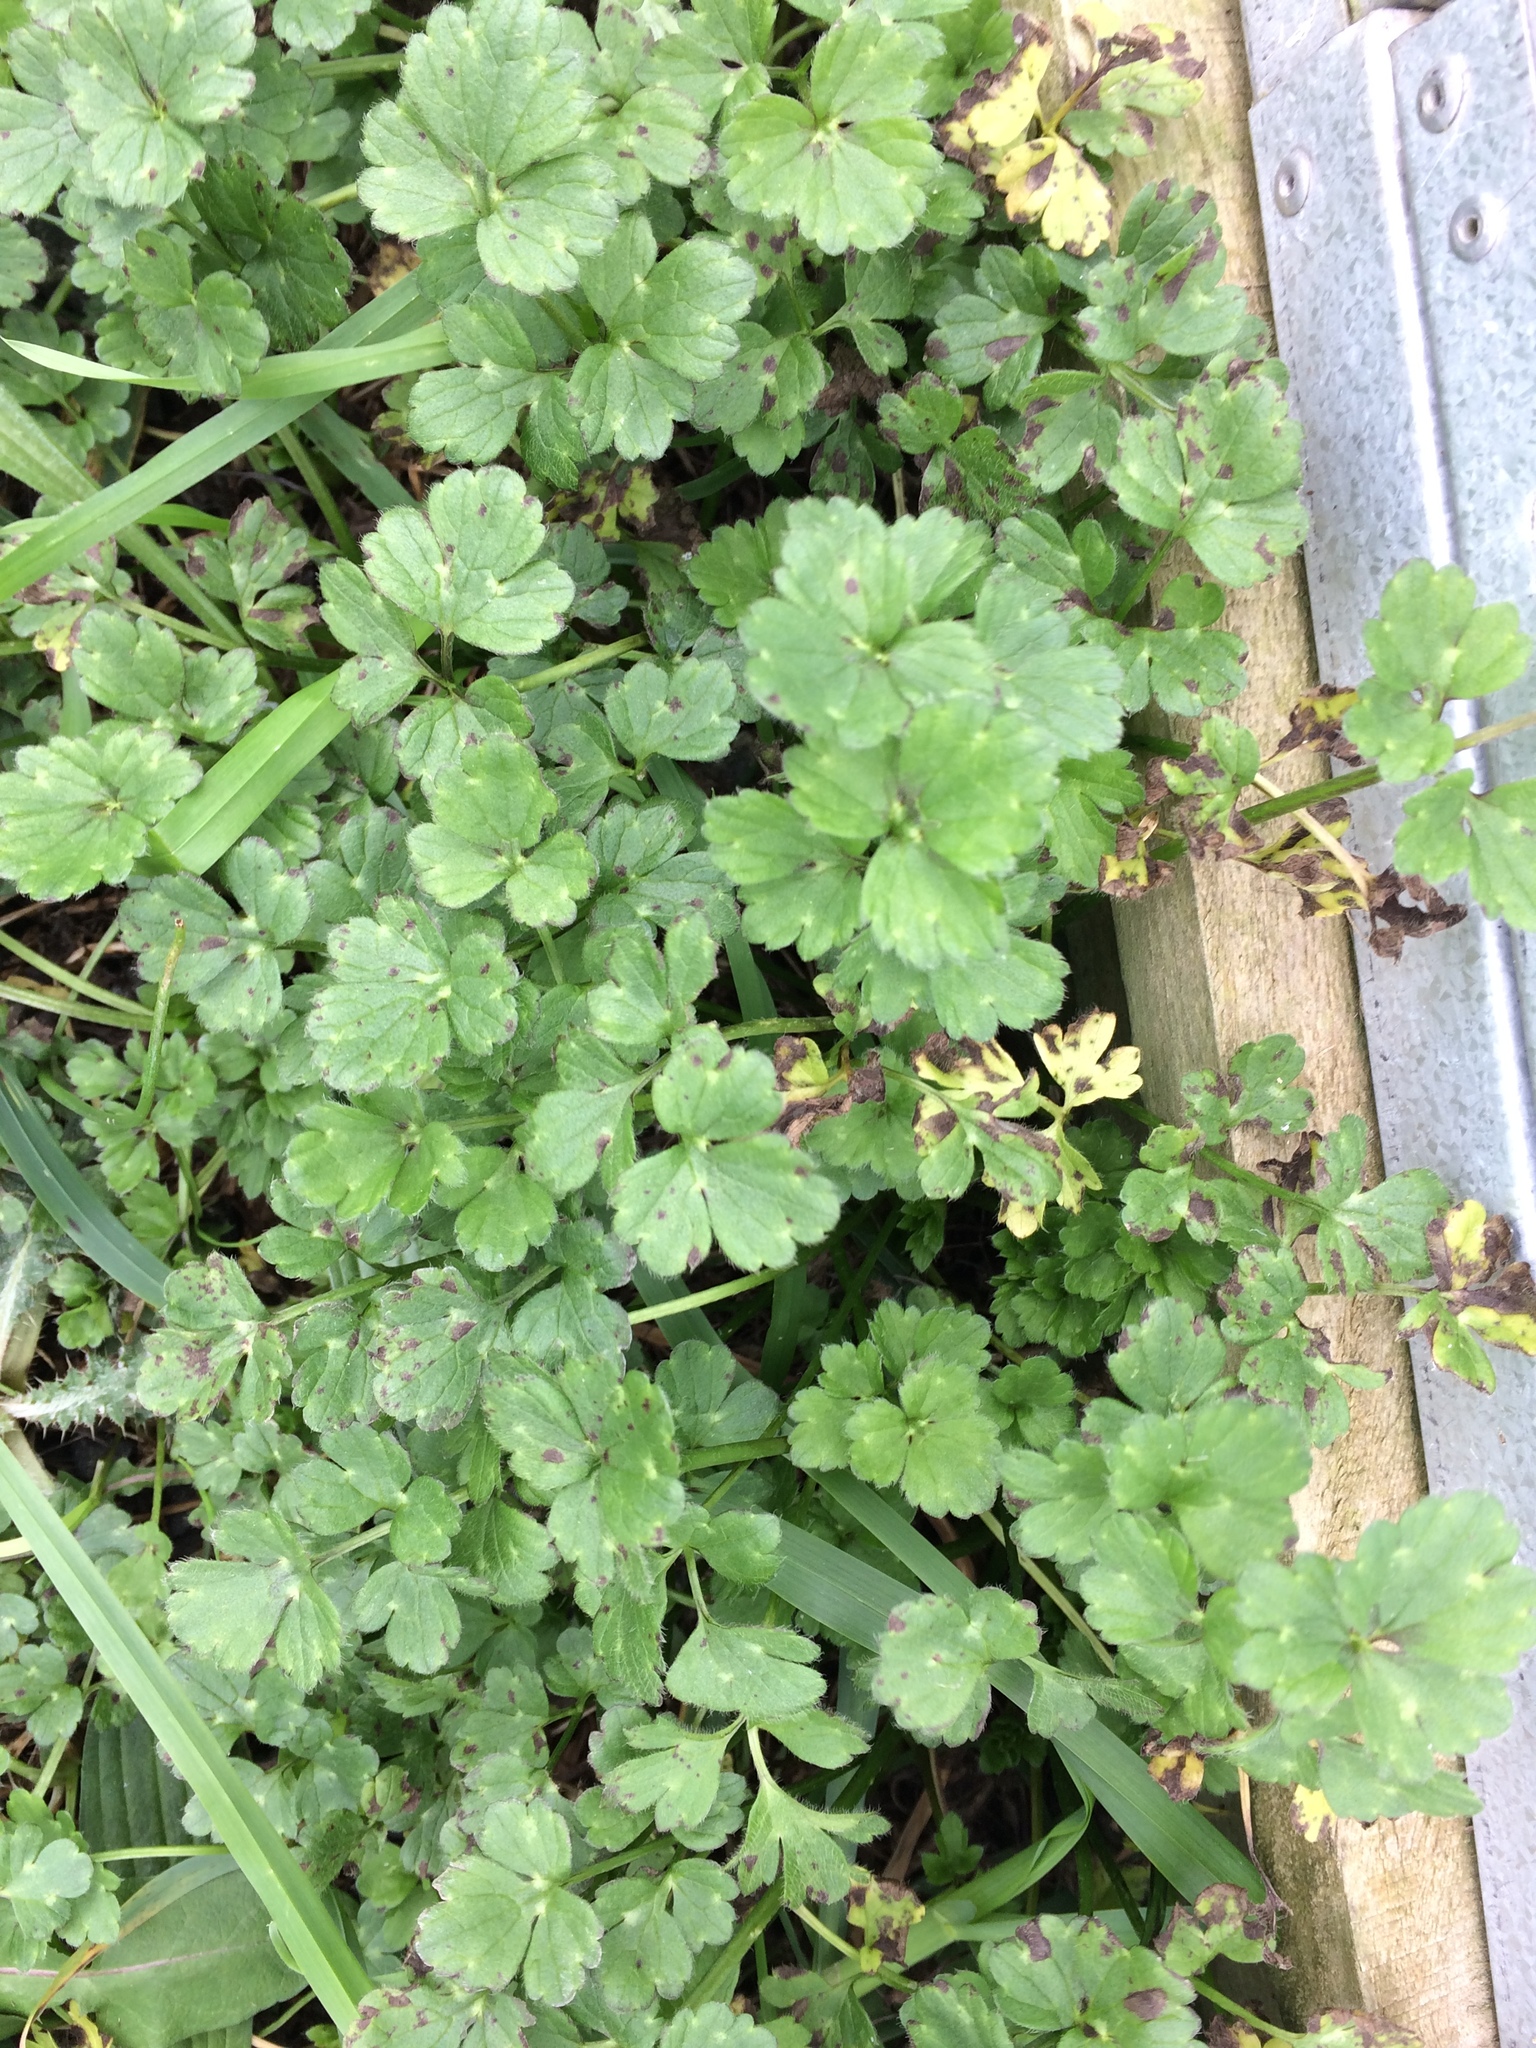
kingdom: Plantae
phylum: Tracheophyta
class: Magnoliopsida
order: Ranunculales
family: Ranunculaceae
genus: Ranunculus
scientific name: Ranunculus repens
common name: Creeping buttercup
